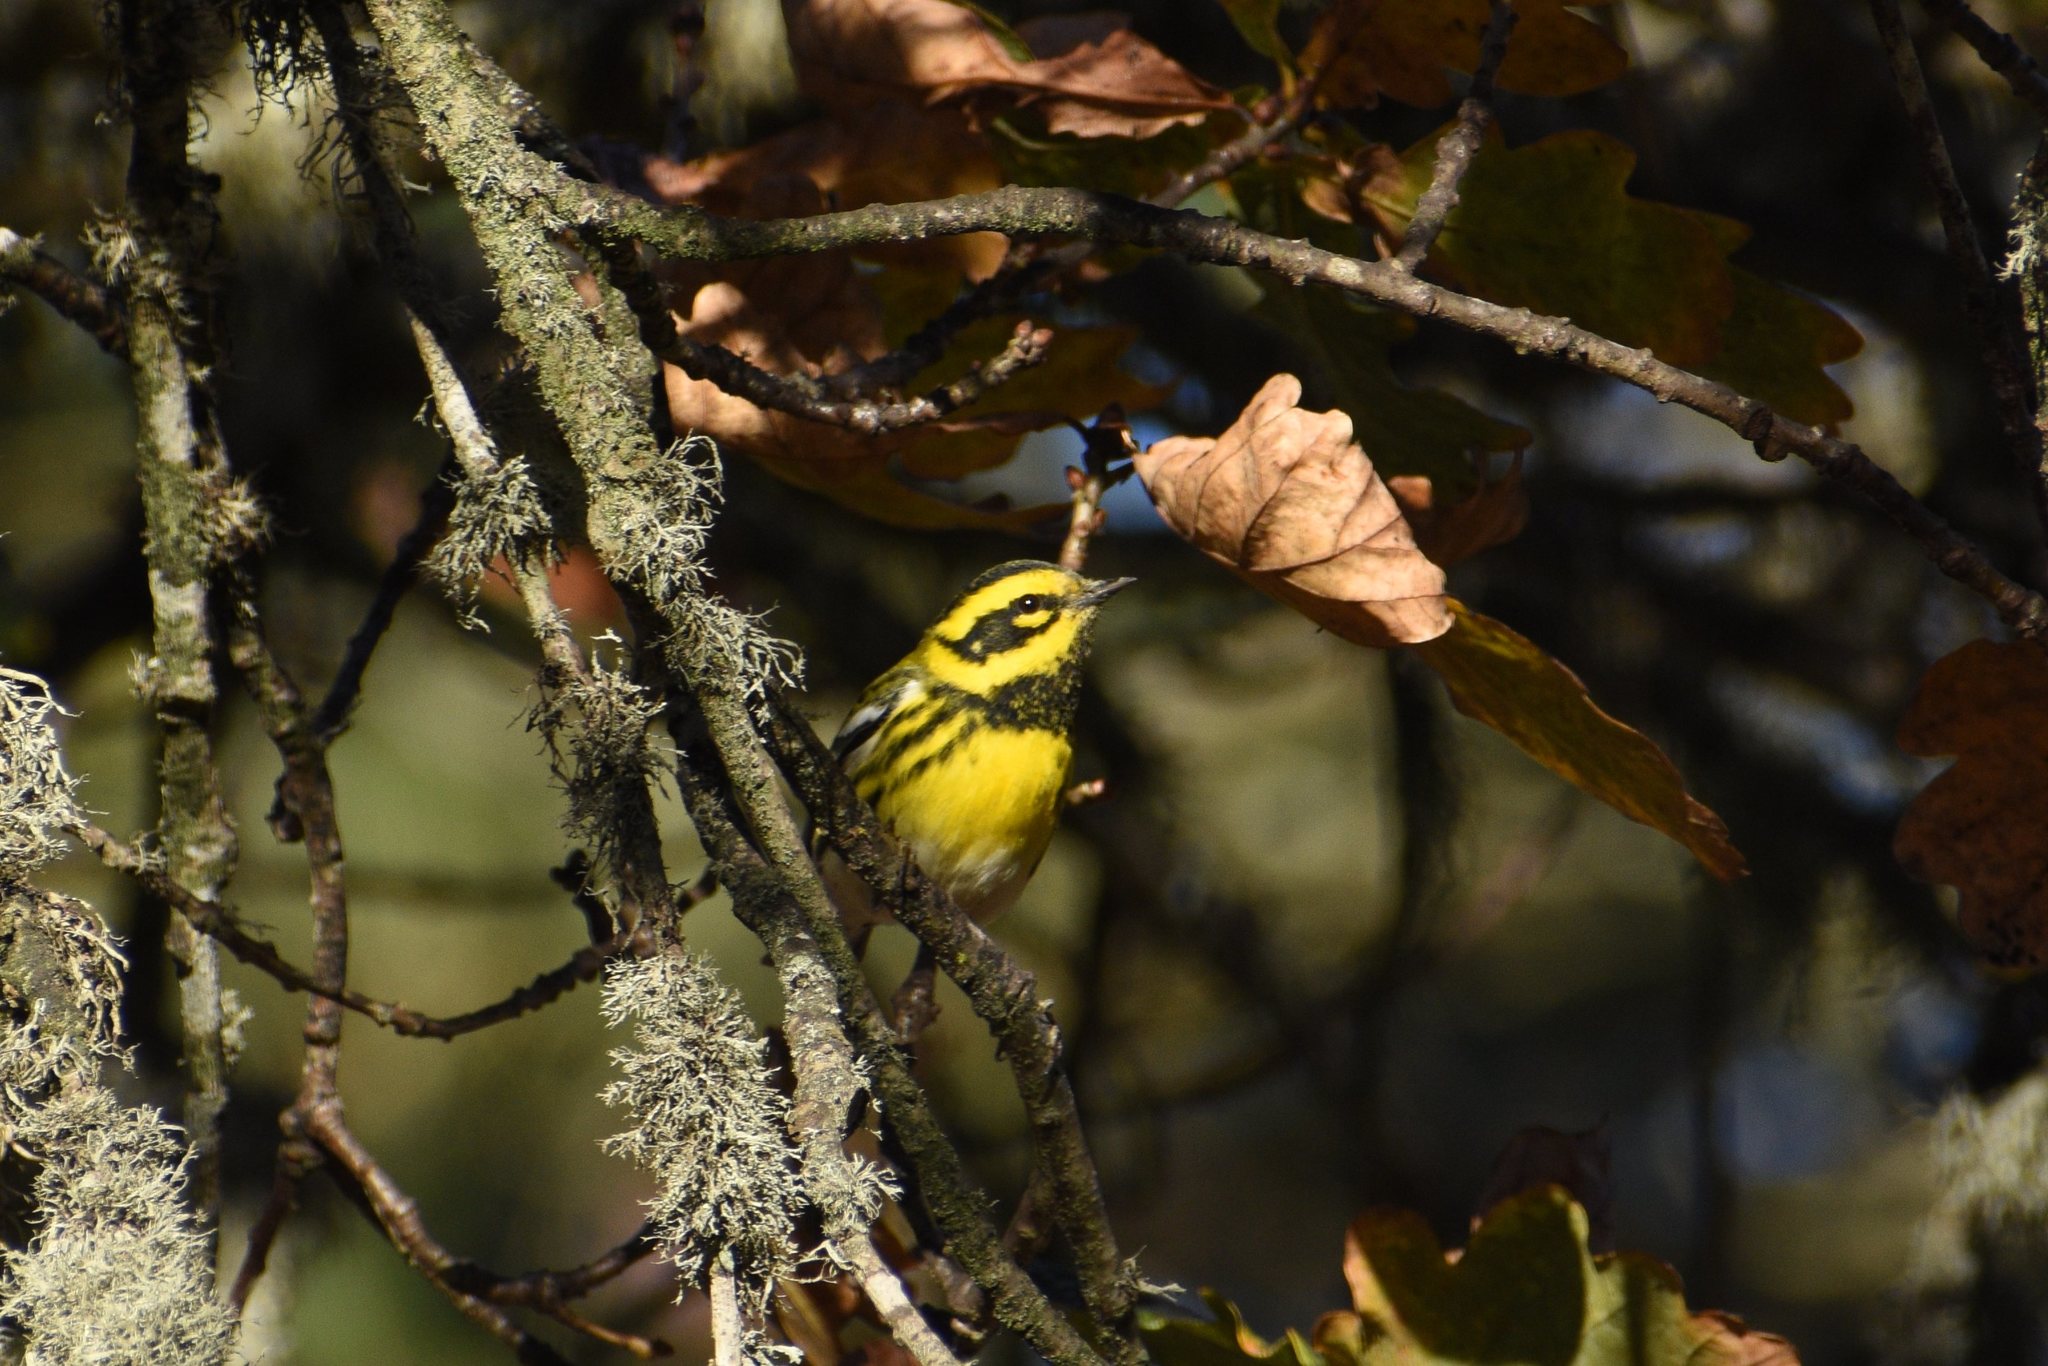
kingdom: Animalia
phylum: Chordata
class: Aves
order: Passeriformes
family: Parulidae
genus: Setophaga
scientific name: Setophaga townsendi
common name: Townsend's warbler
